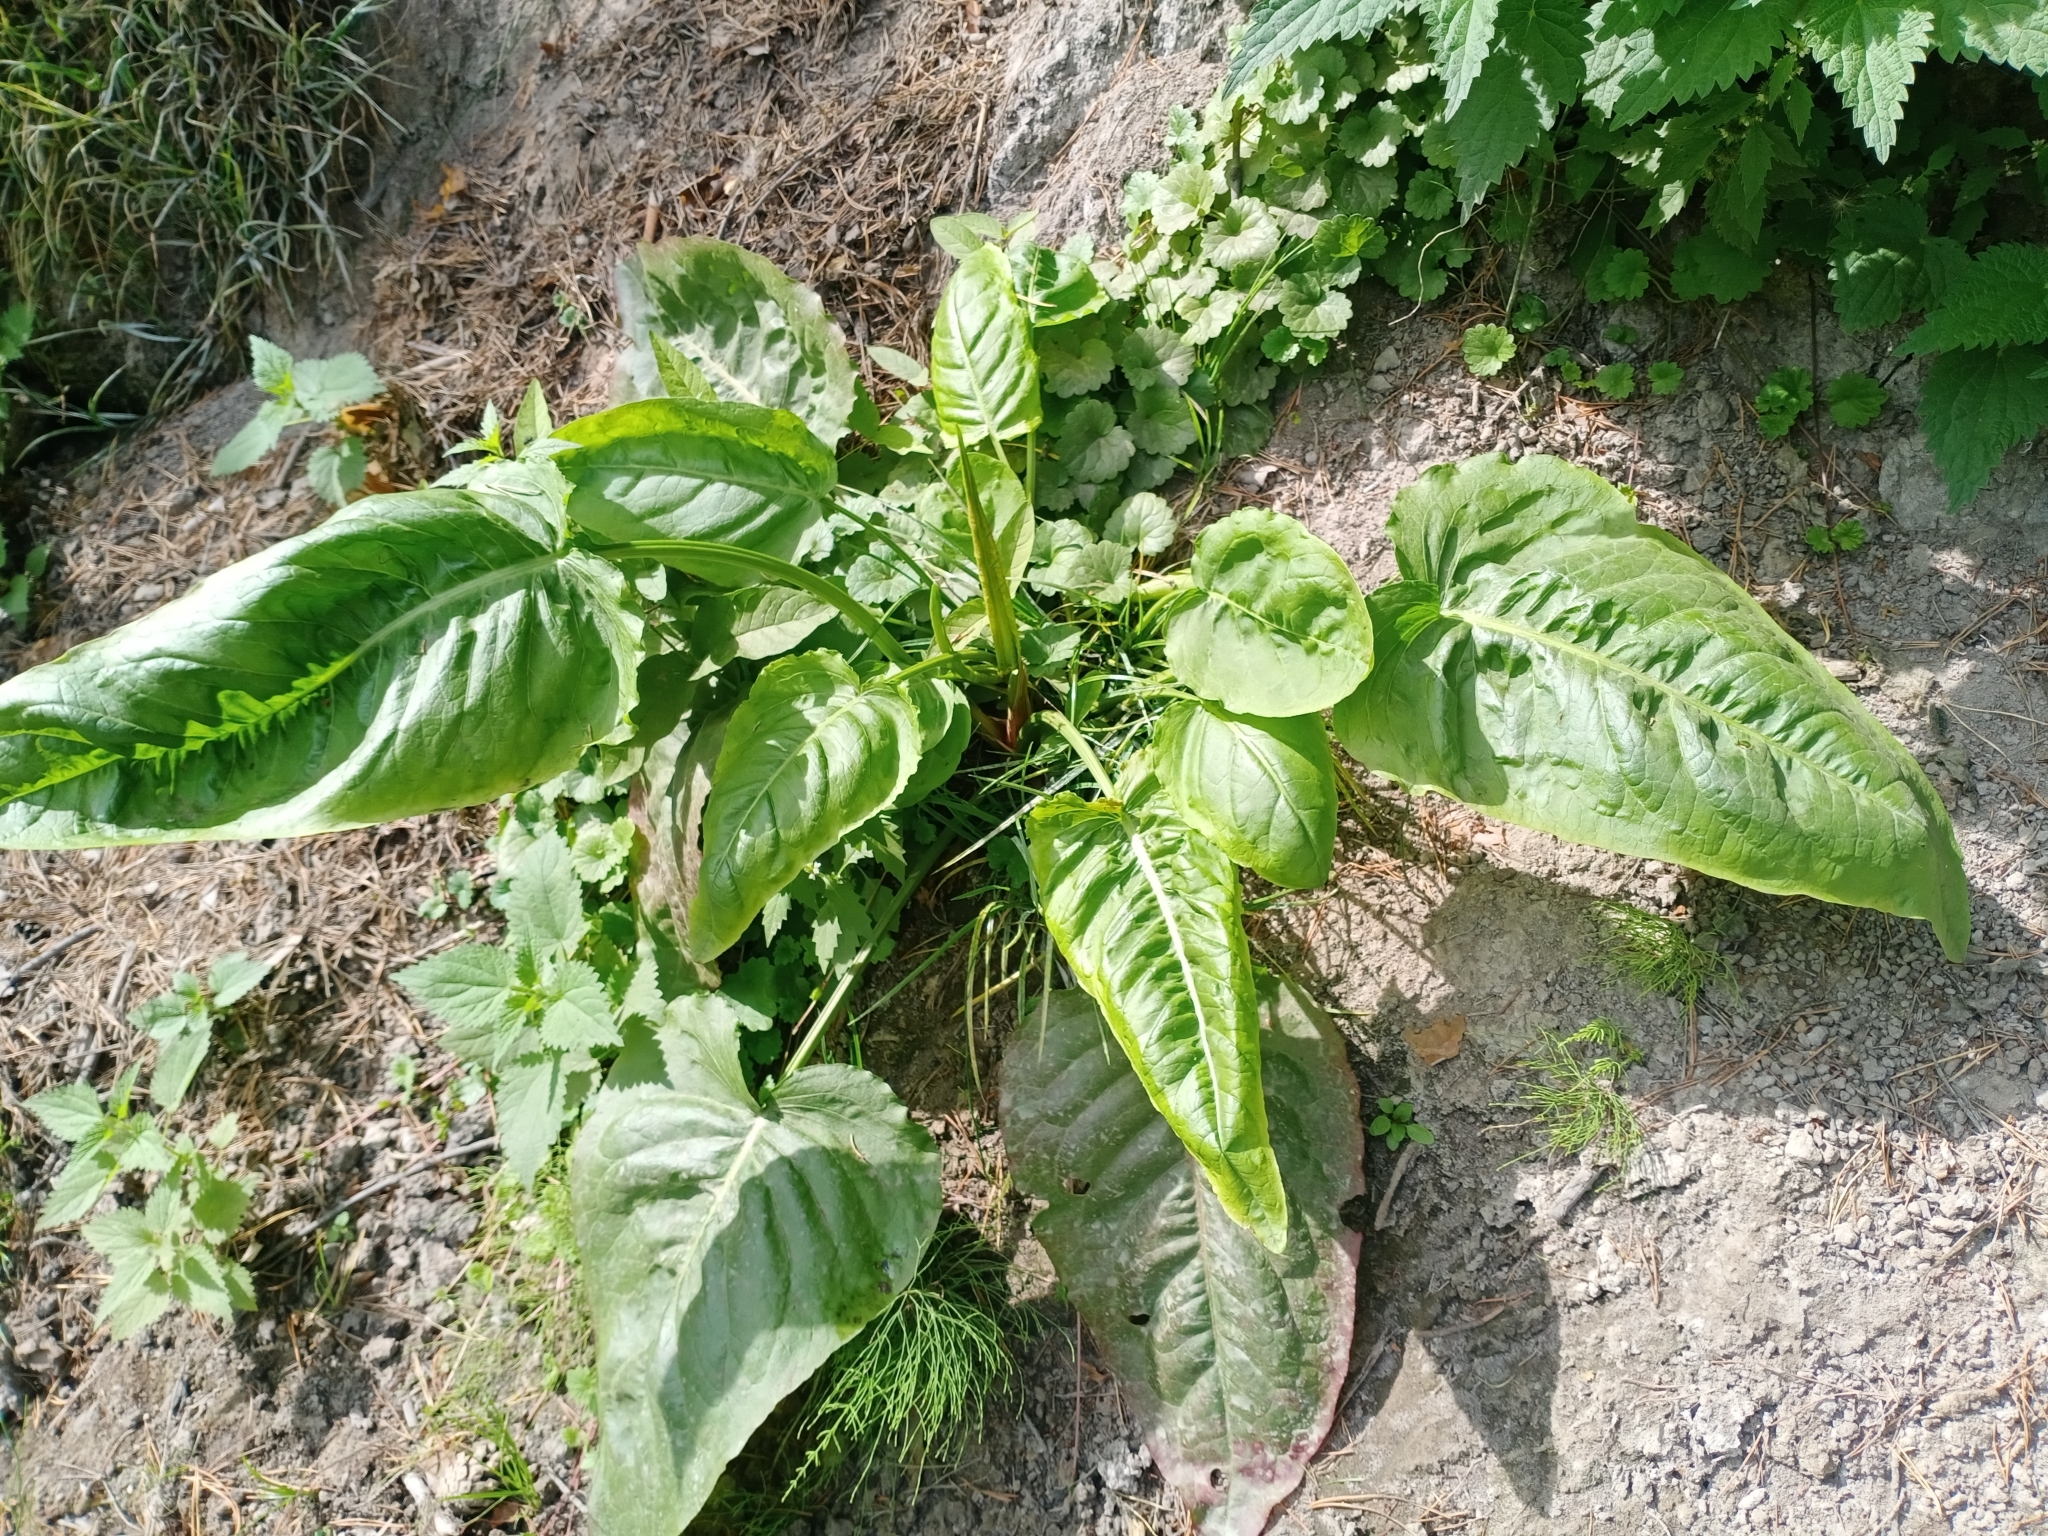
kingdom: Plantae
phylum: Tracheophyta
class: Magnoliopsida
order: Caryophyllales
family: Polygonaceae
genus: Rumex
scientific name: Rumex aquaticus
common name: Scottish dock
